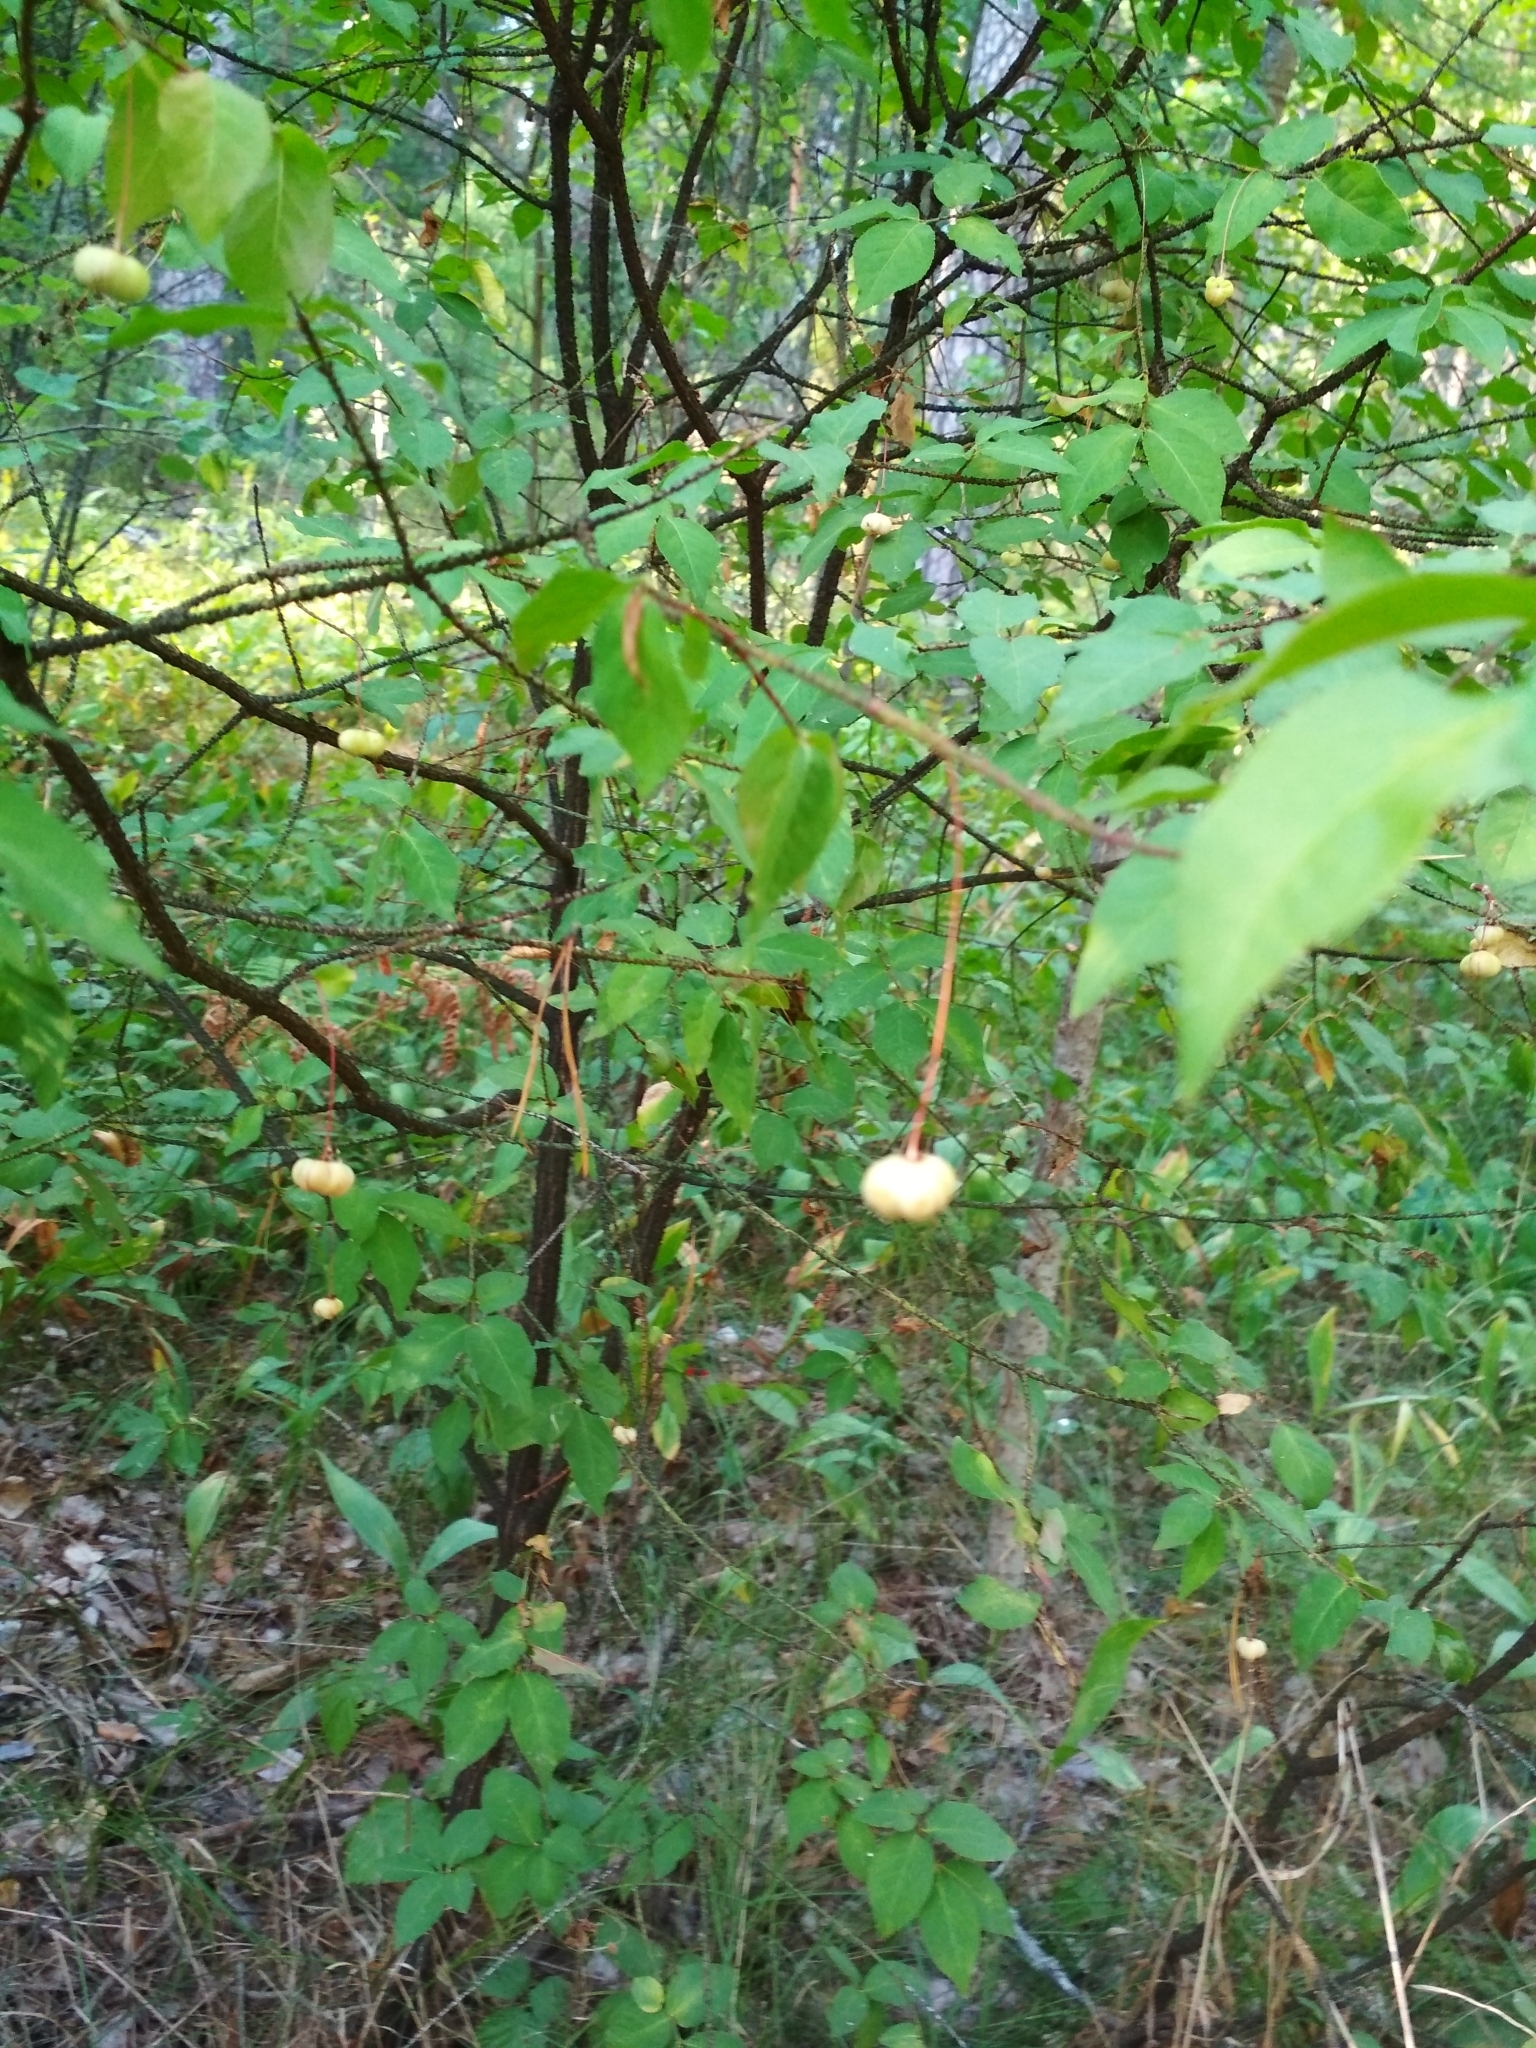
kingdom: Plantae
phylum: Tracheophyta
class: Magnoliopsida
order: Celastrales
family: Celastraceae
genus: Euonymus
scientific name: Euonymus verrucosus
